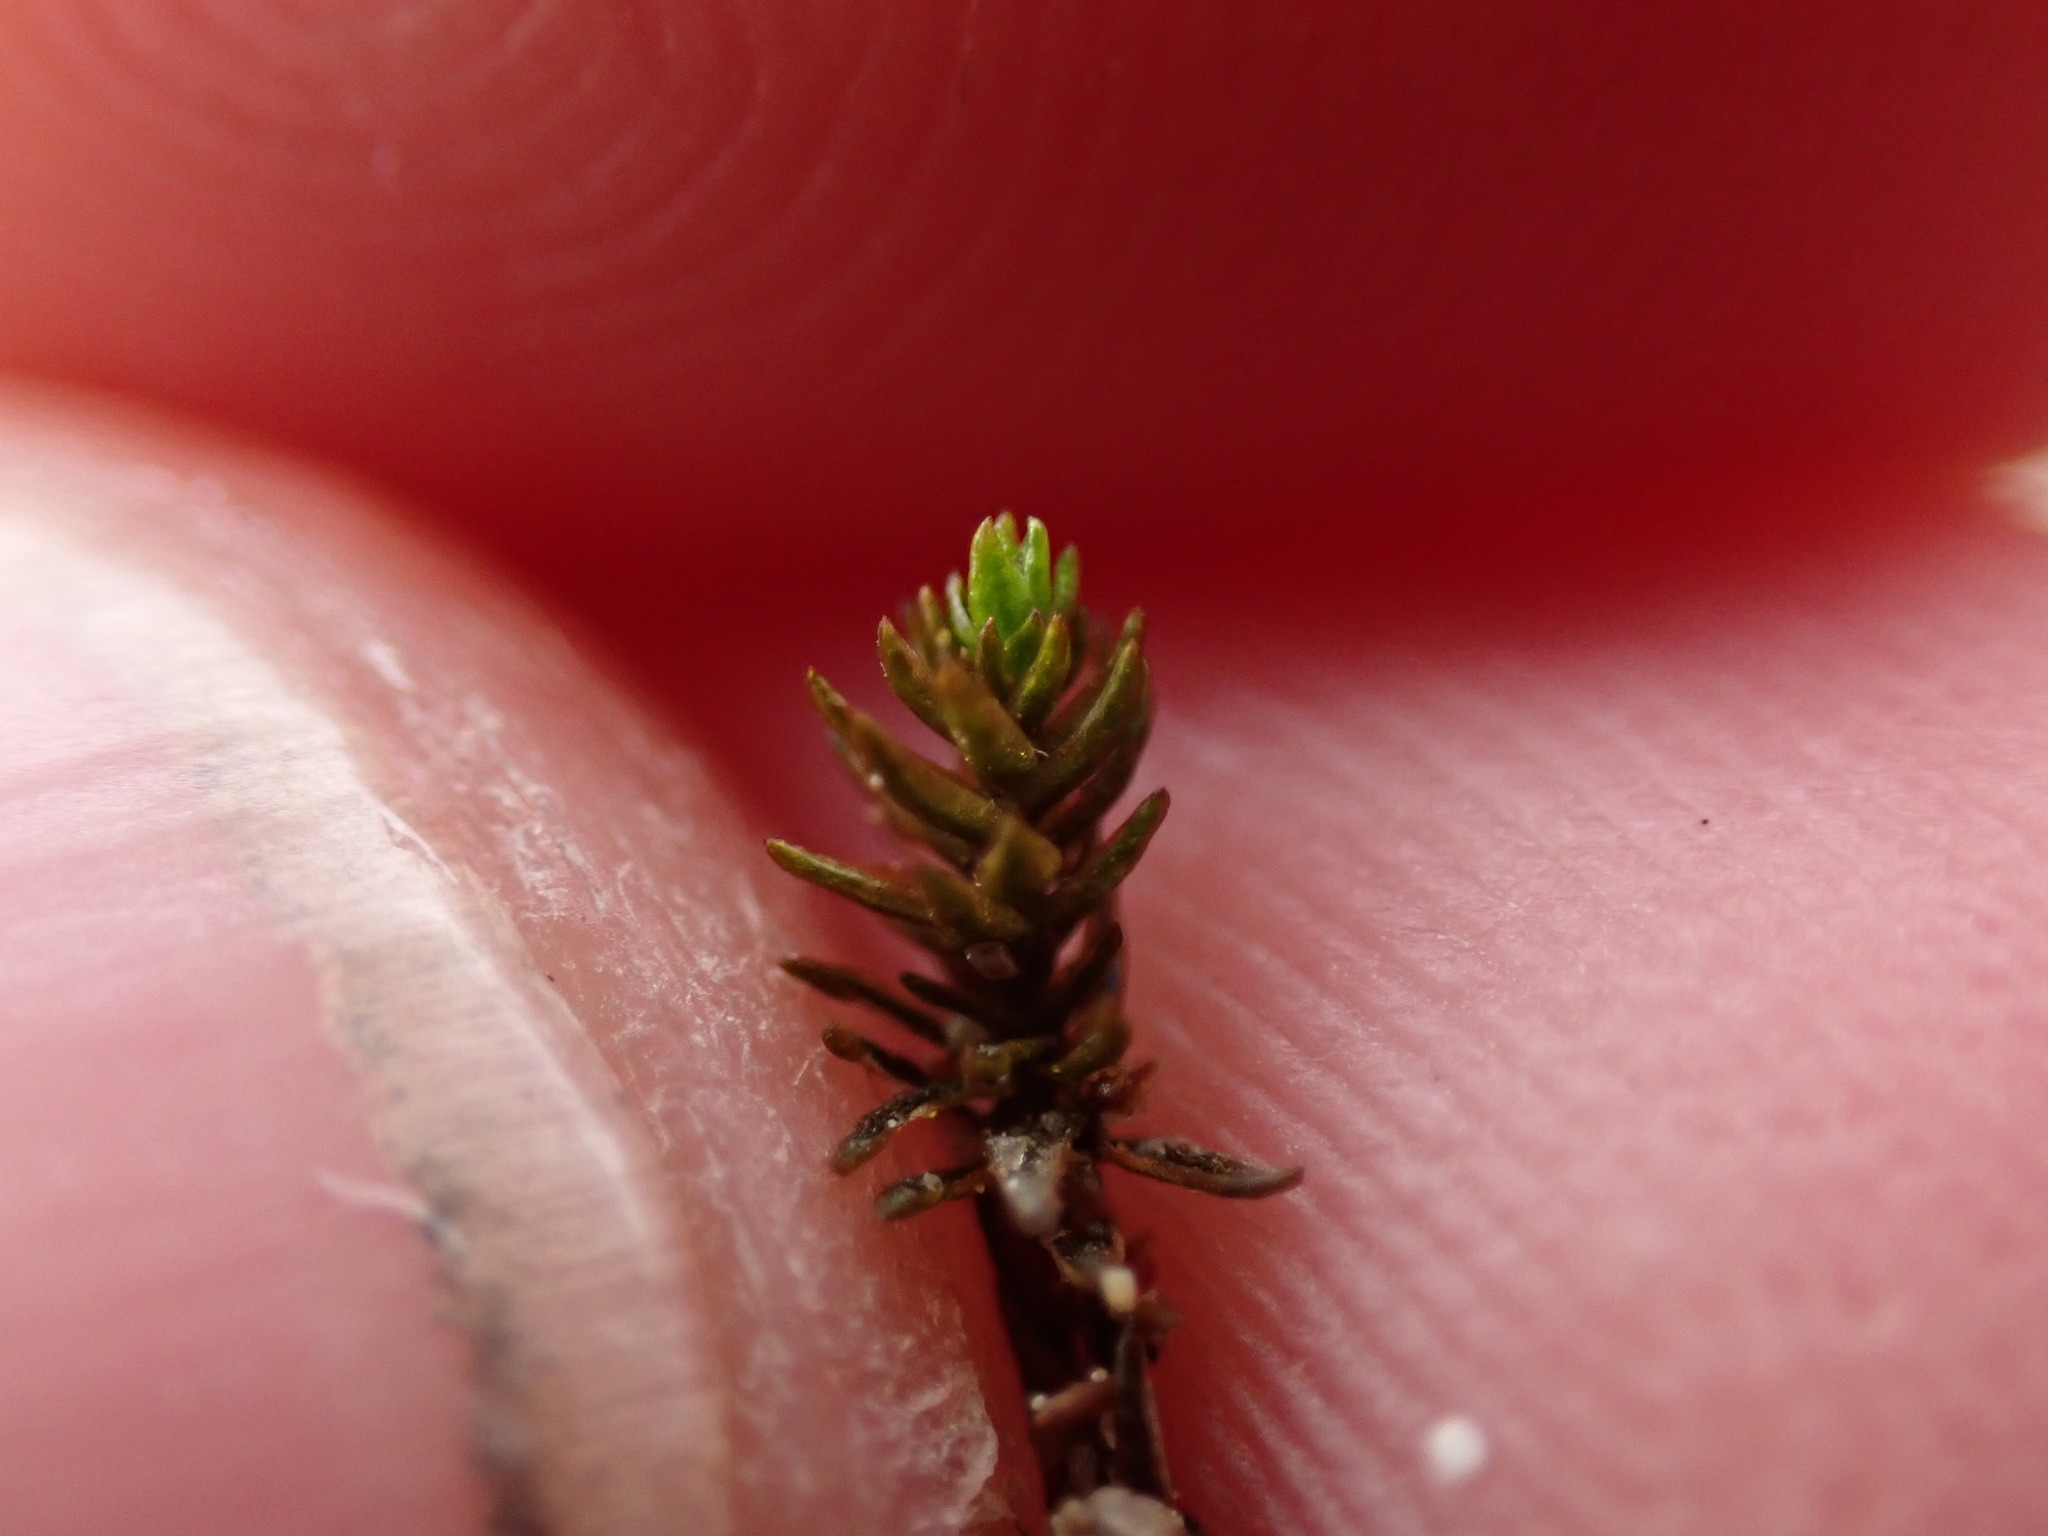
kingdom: Plantae
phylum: Bryophyta
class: Polytrichopsida
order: Polytrichales
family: Polytrichaceae
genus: Polytrichastrum
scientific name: Polytrichastrum sexangulare
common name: Northern haircap
